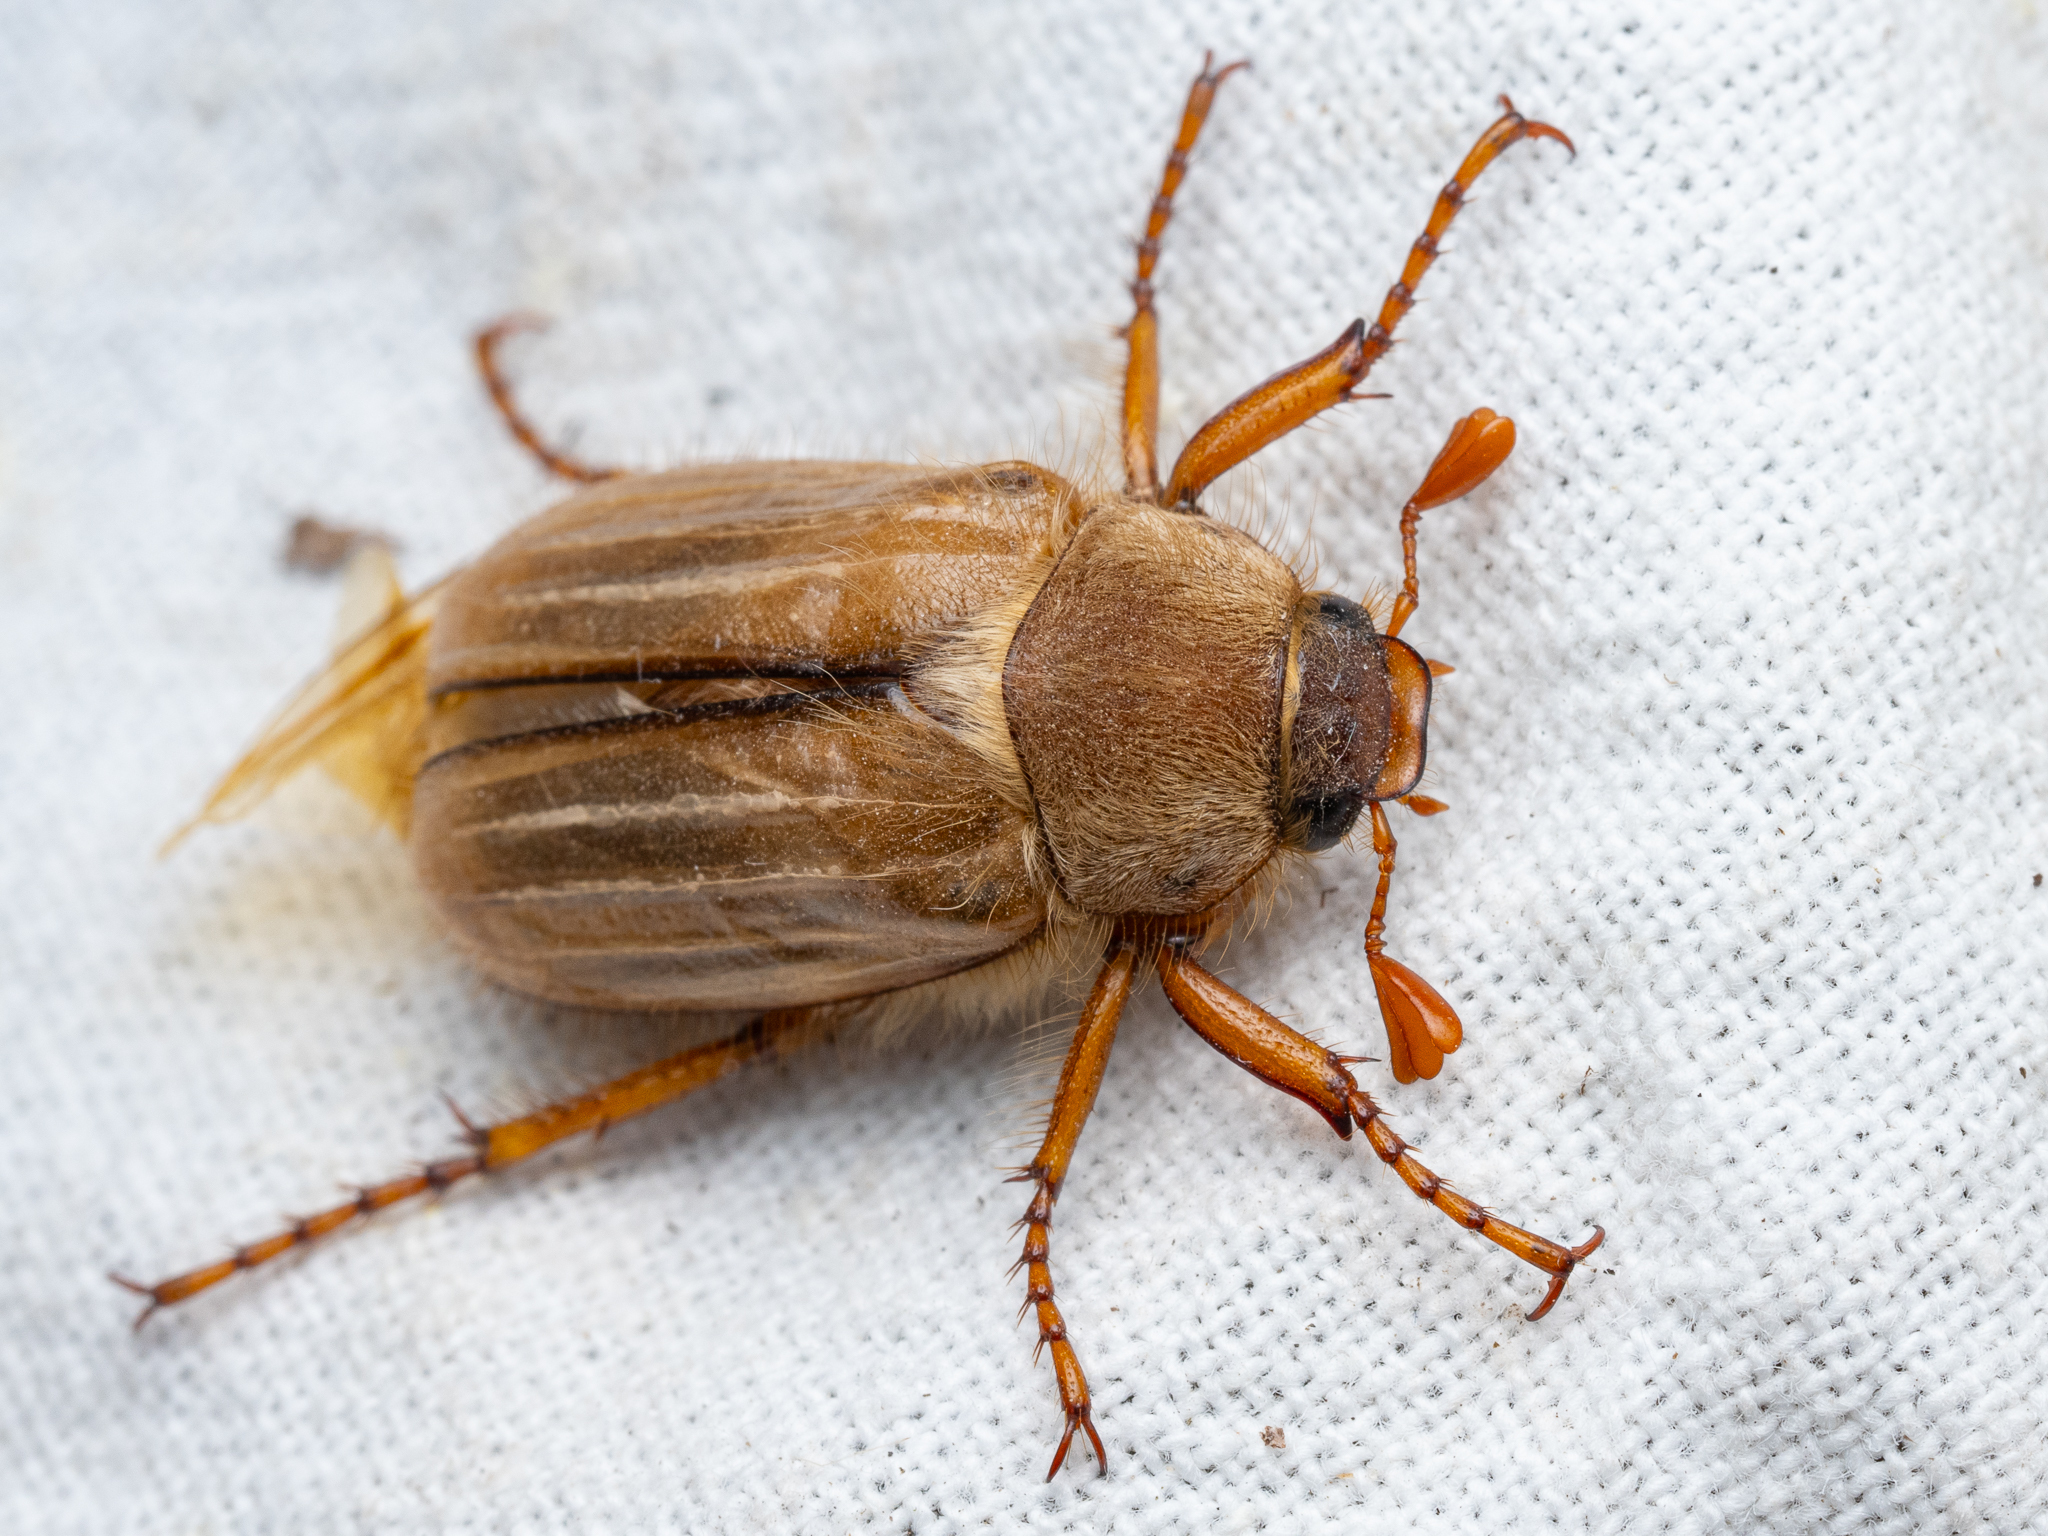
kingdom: Animalia
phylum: Arthropoda
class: Insecta
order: Coleoptera
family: Scarabaeidae
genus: Amphimallon
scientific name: Amphimallon solstitiale
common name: Summer chafer
